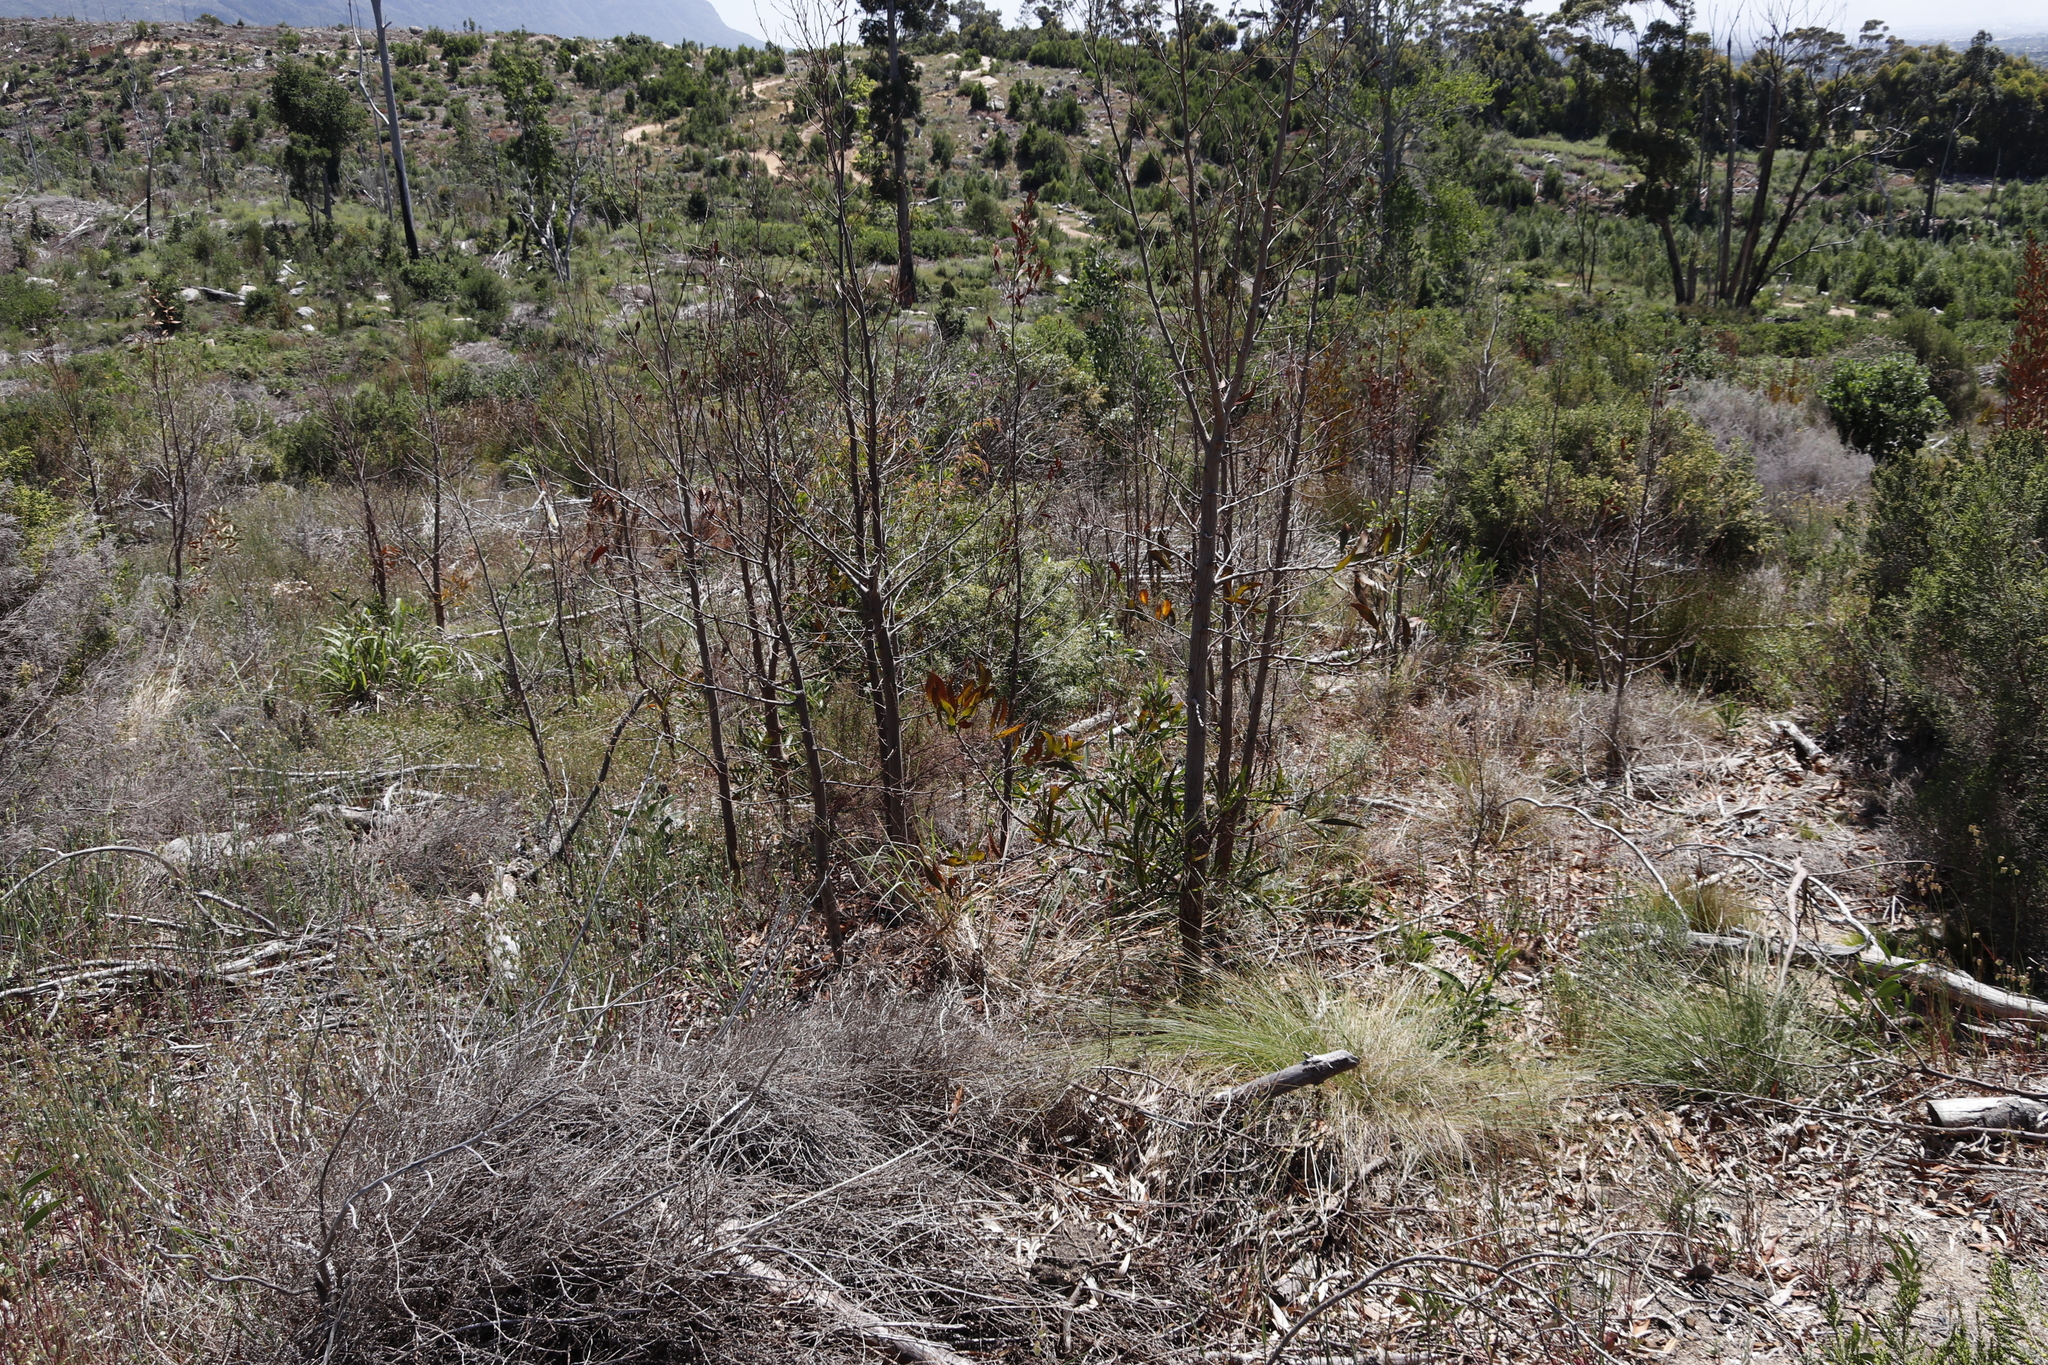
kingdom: Plantae
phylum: Tracheophyta
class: Magnoliopsida
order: Fabales
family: Fabaceae
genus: Acacia
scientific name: Acacia melanoxylon
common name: Blackwood
